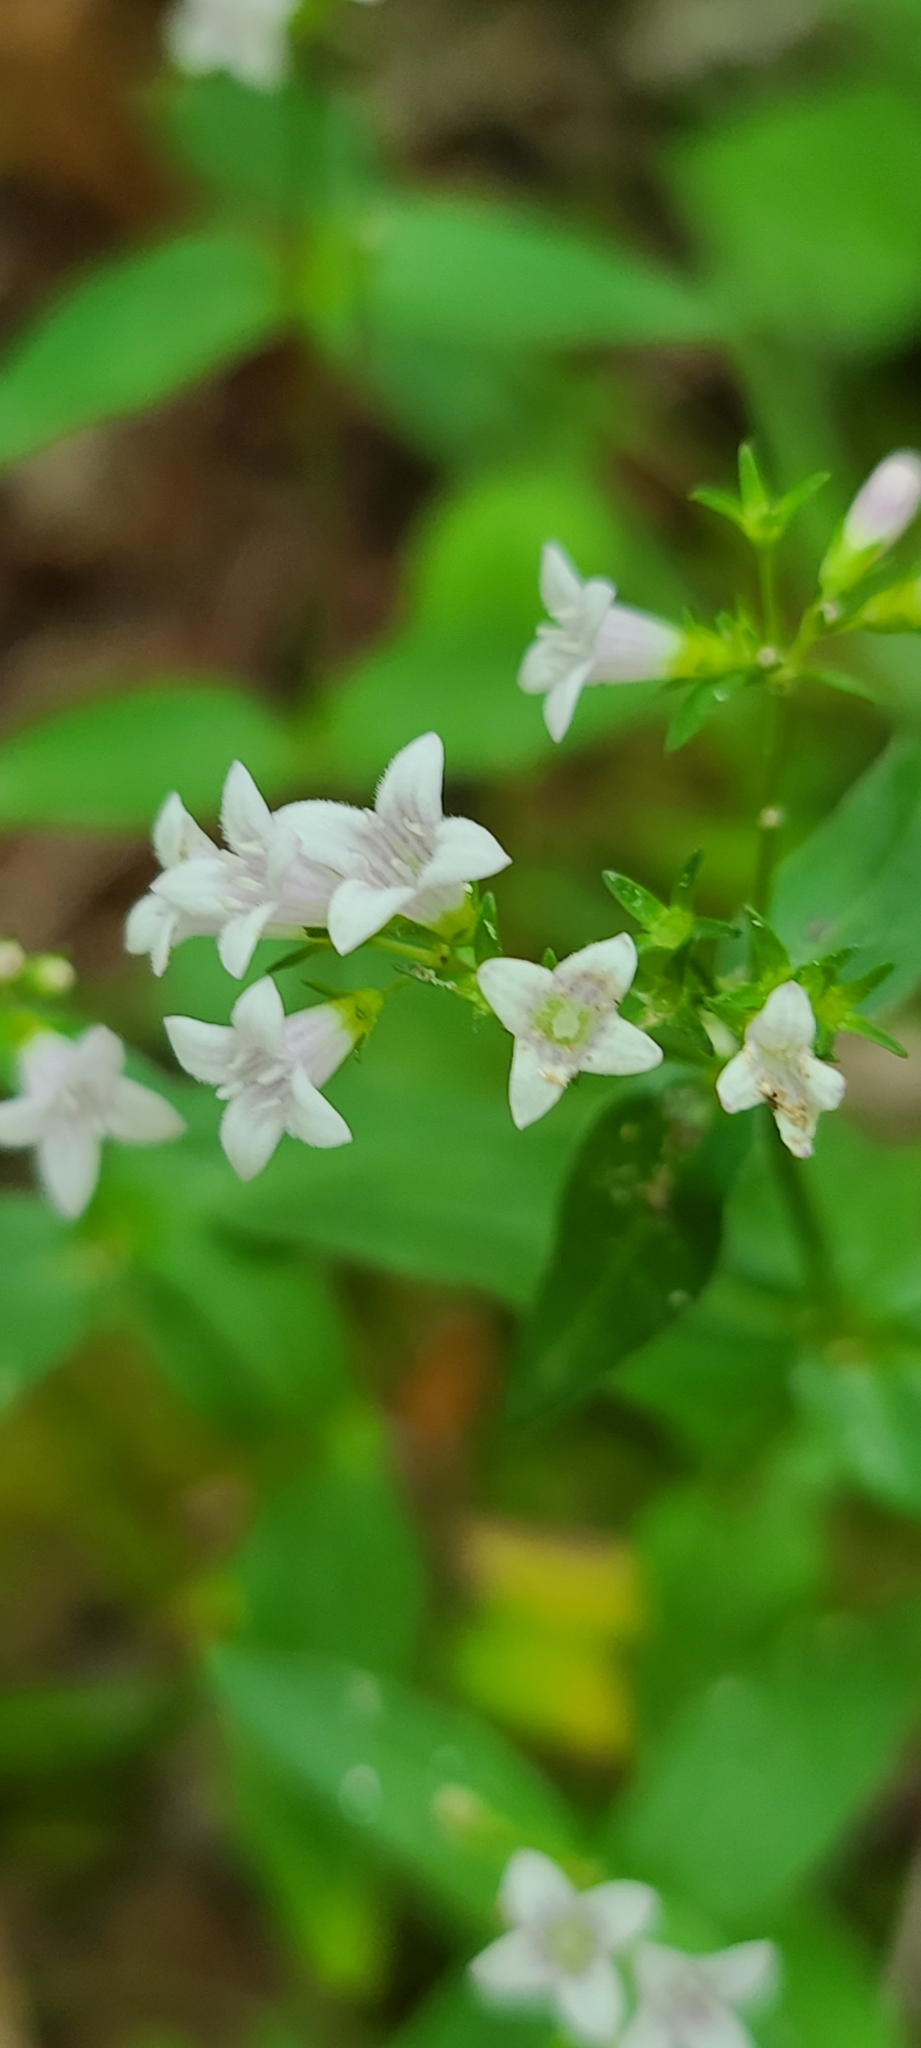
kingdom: Plantae
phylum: Tracheophyta
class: Magnoliopsida
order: Gentianales
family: Rubiaceae
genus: Houstonia
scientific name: Houstonia purpurea
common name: Summer bluet
